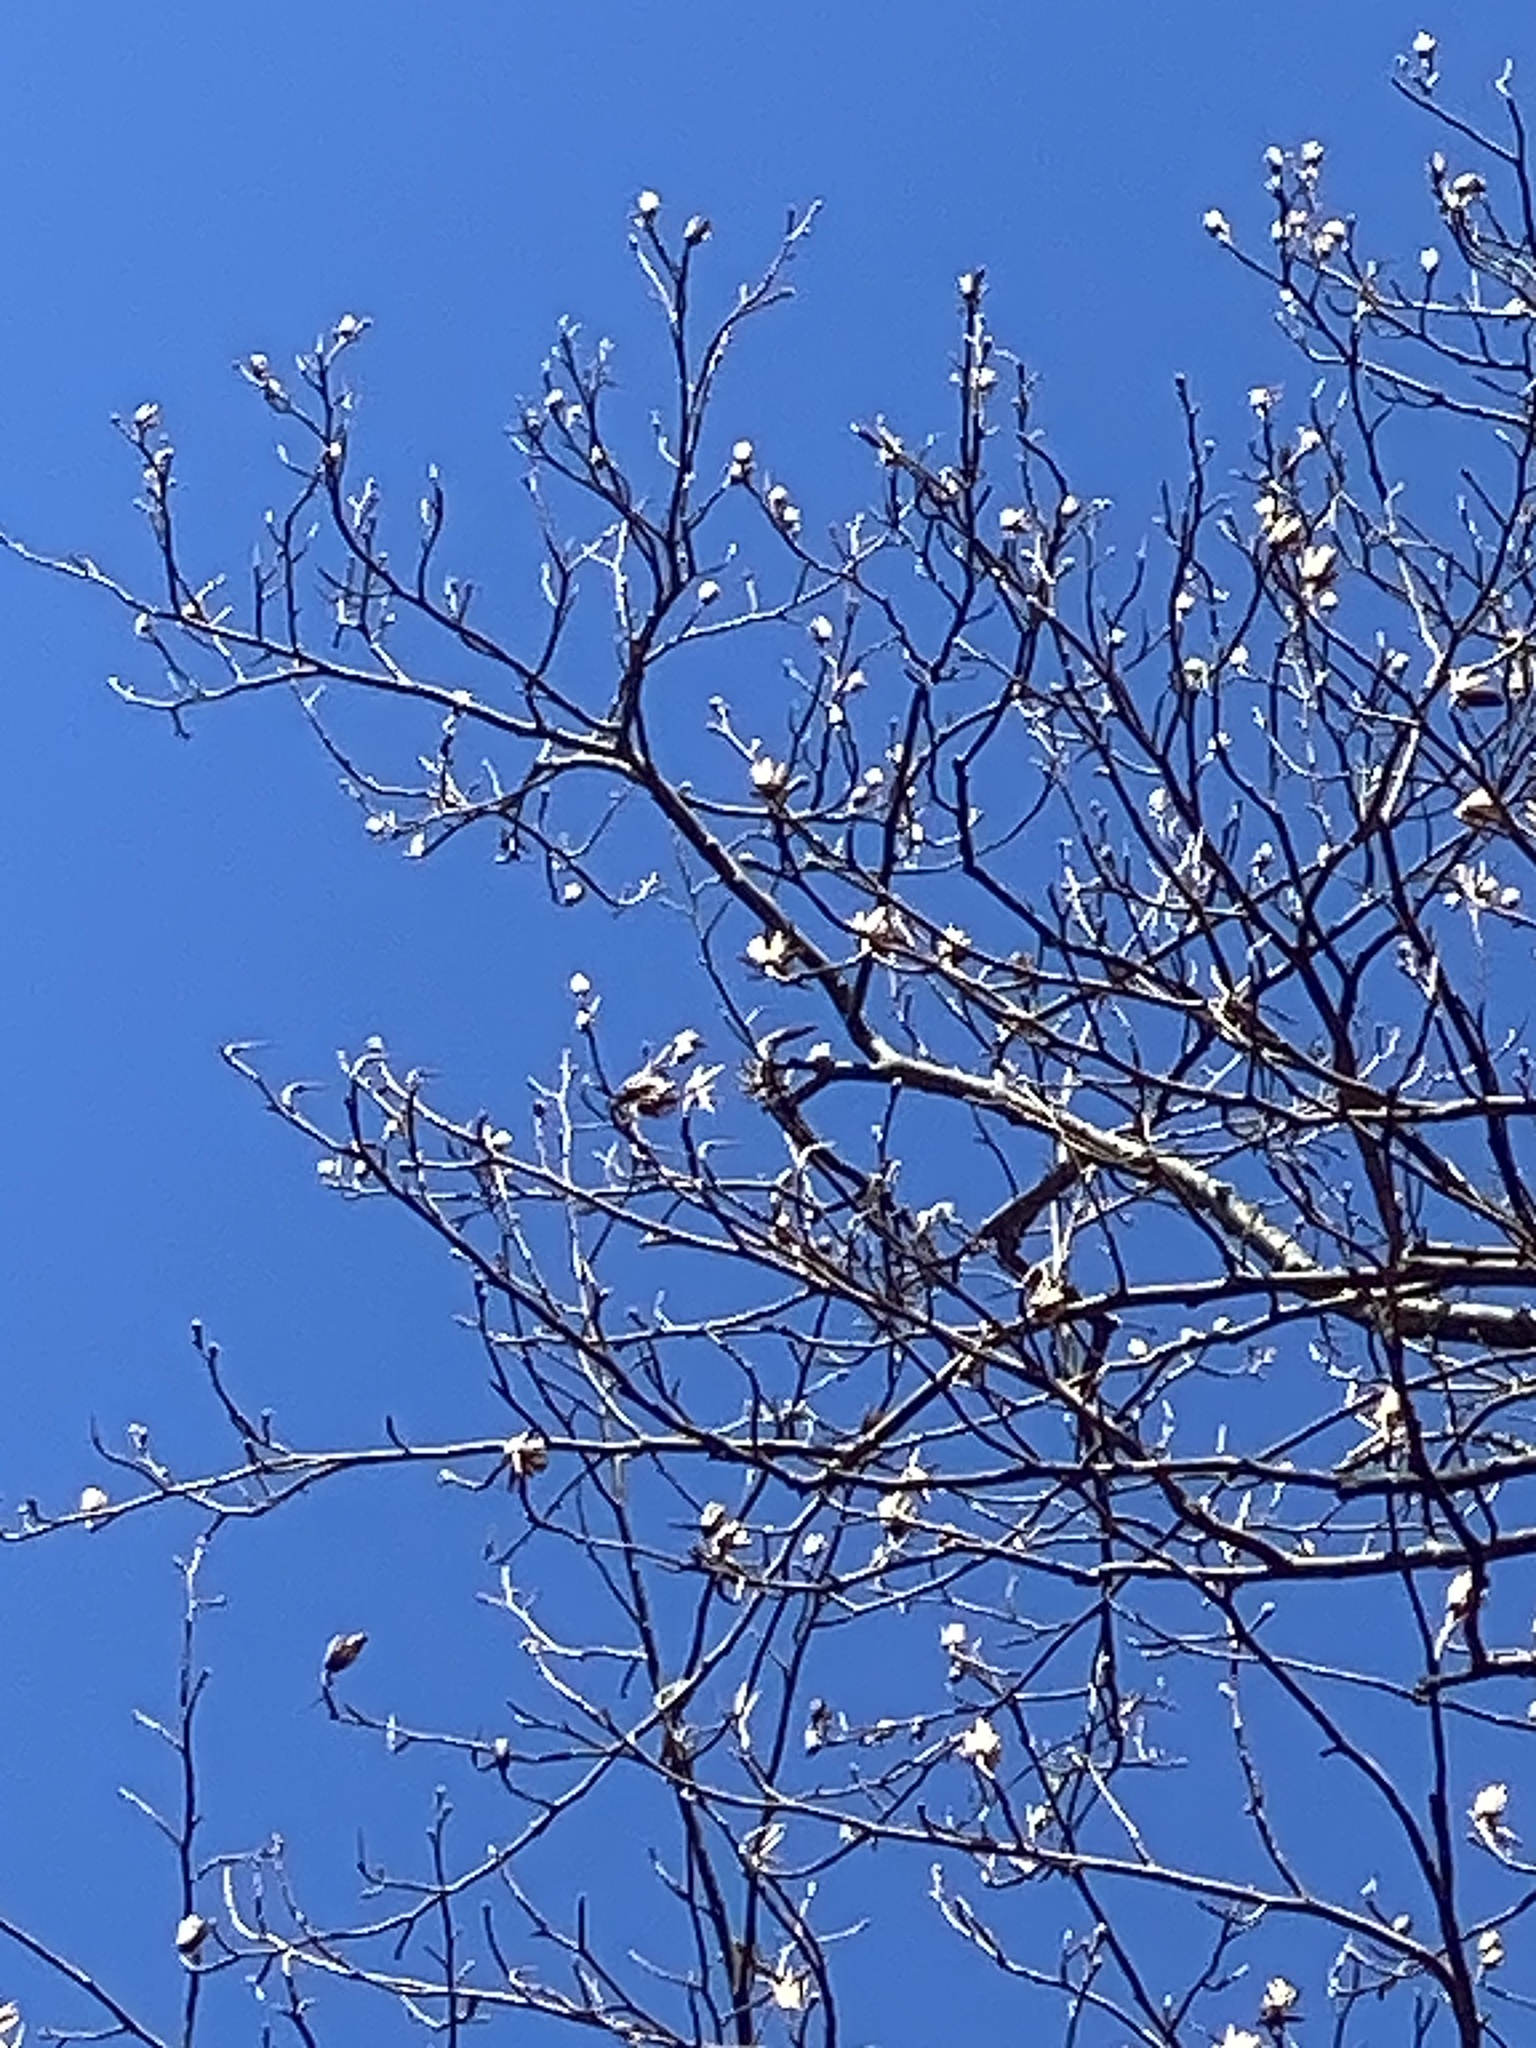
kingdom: Plantae
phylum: Tracheophyta
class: Magnoliopsida
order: Magnoliales
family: Magnoliaceae
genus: Liriodendron
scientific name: Liriodendron tulipifera
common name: Tulip tree
